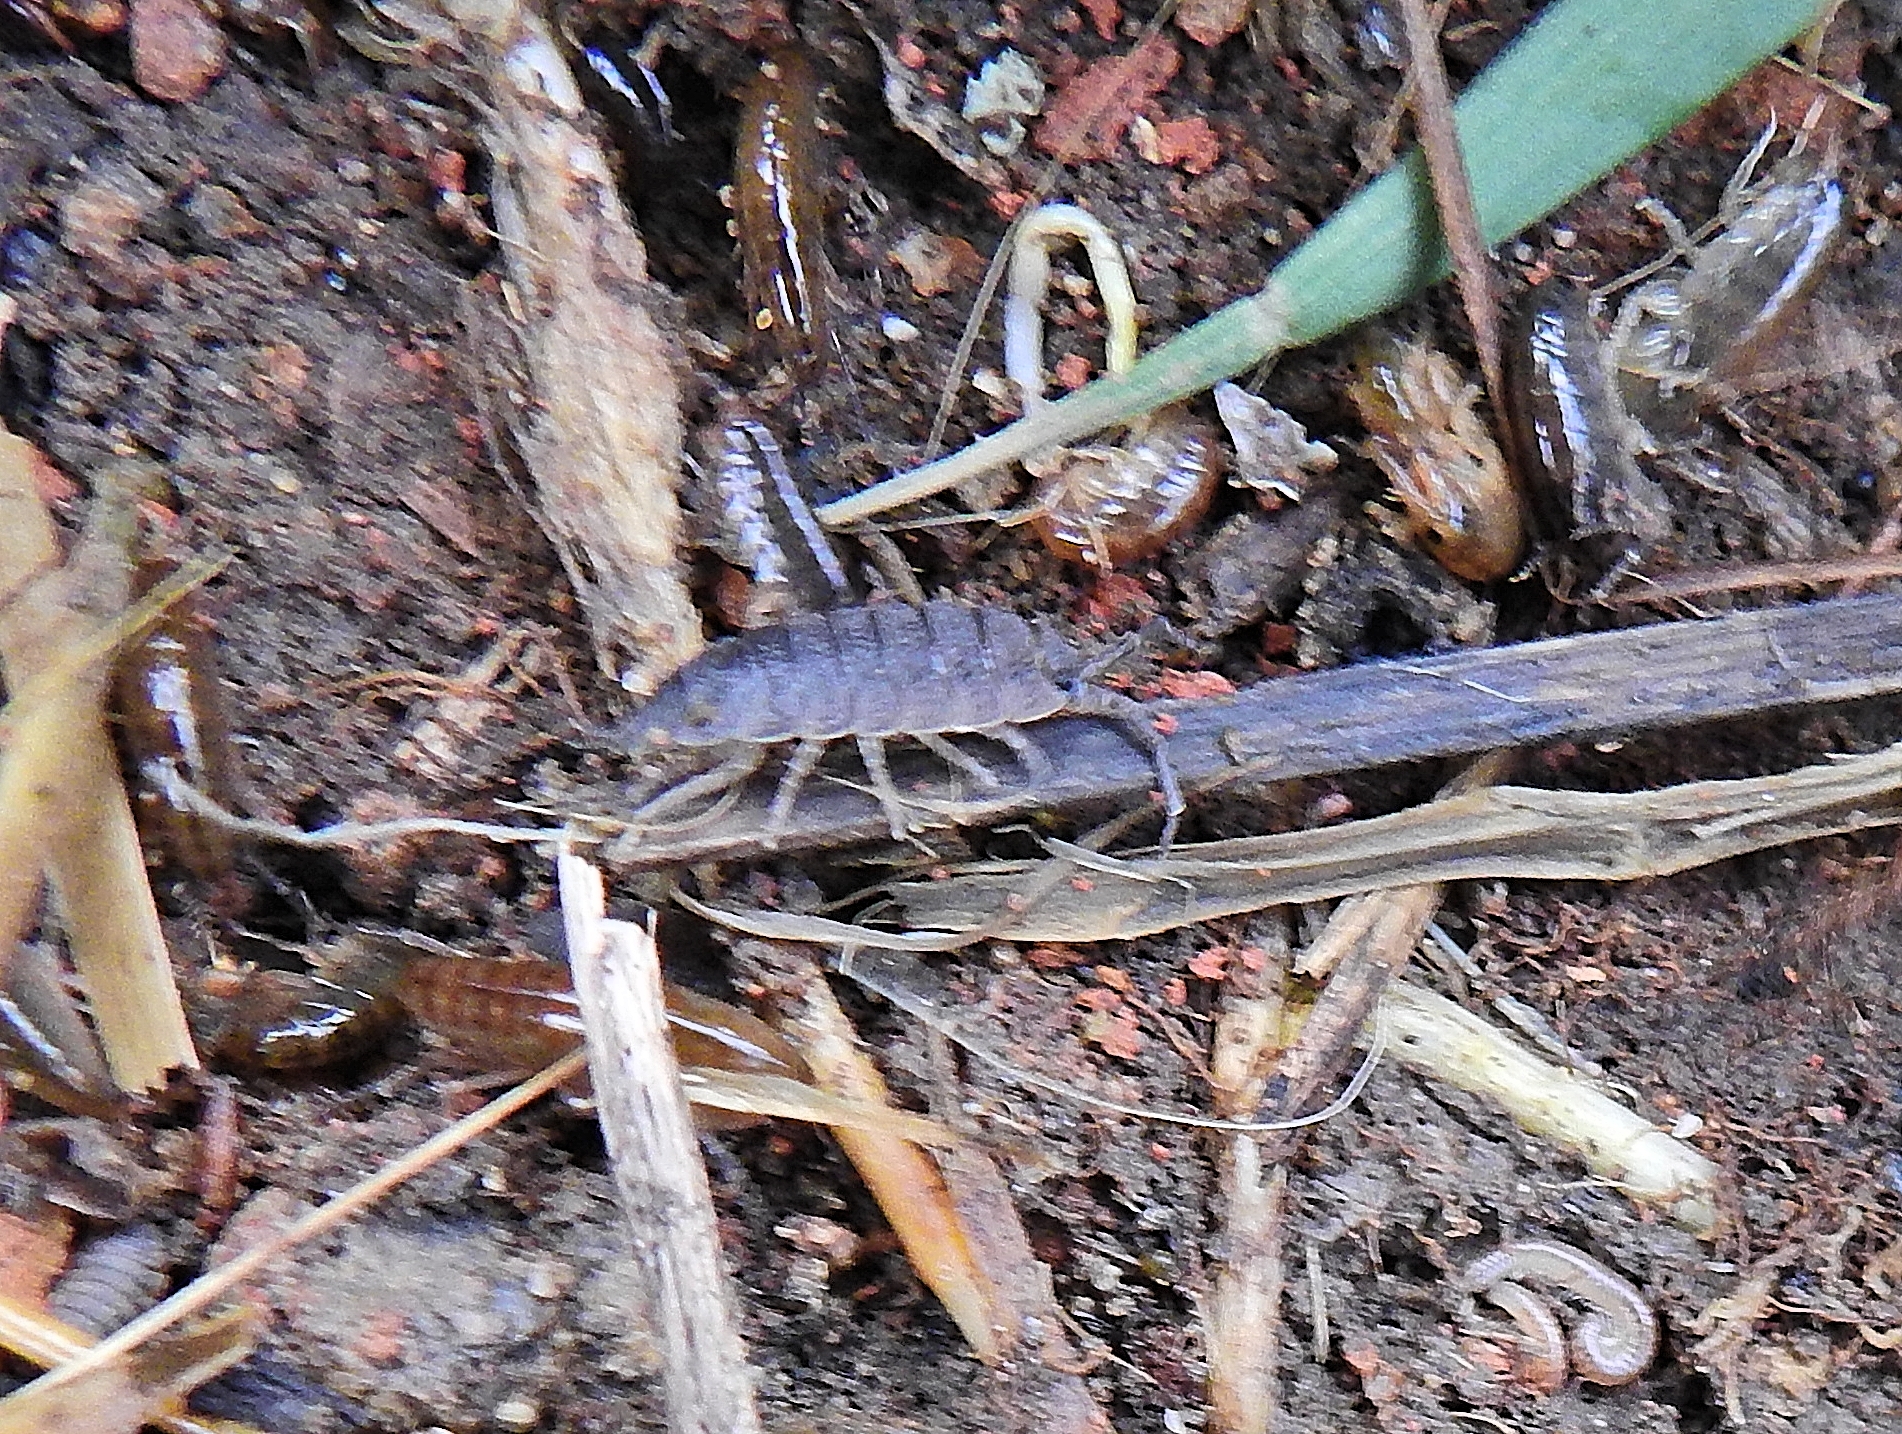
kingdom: Animalia
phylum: Arthropoda
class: Malacostraca
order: Isopoda
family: Porcellionidae
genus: Porcellio
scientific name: Porcellio scaber
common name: Common rough woodlouse
